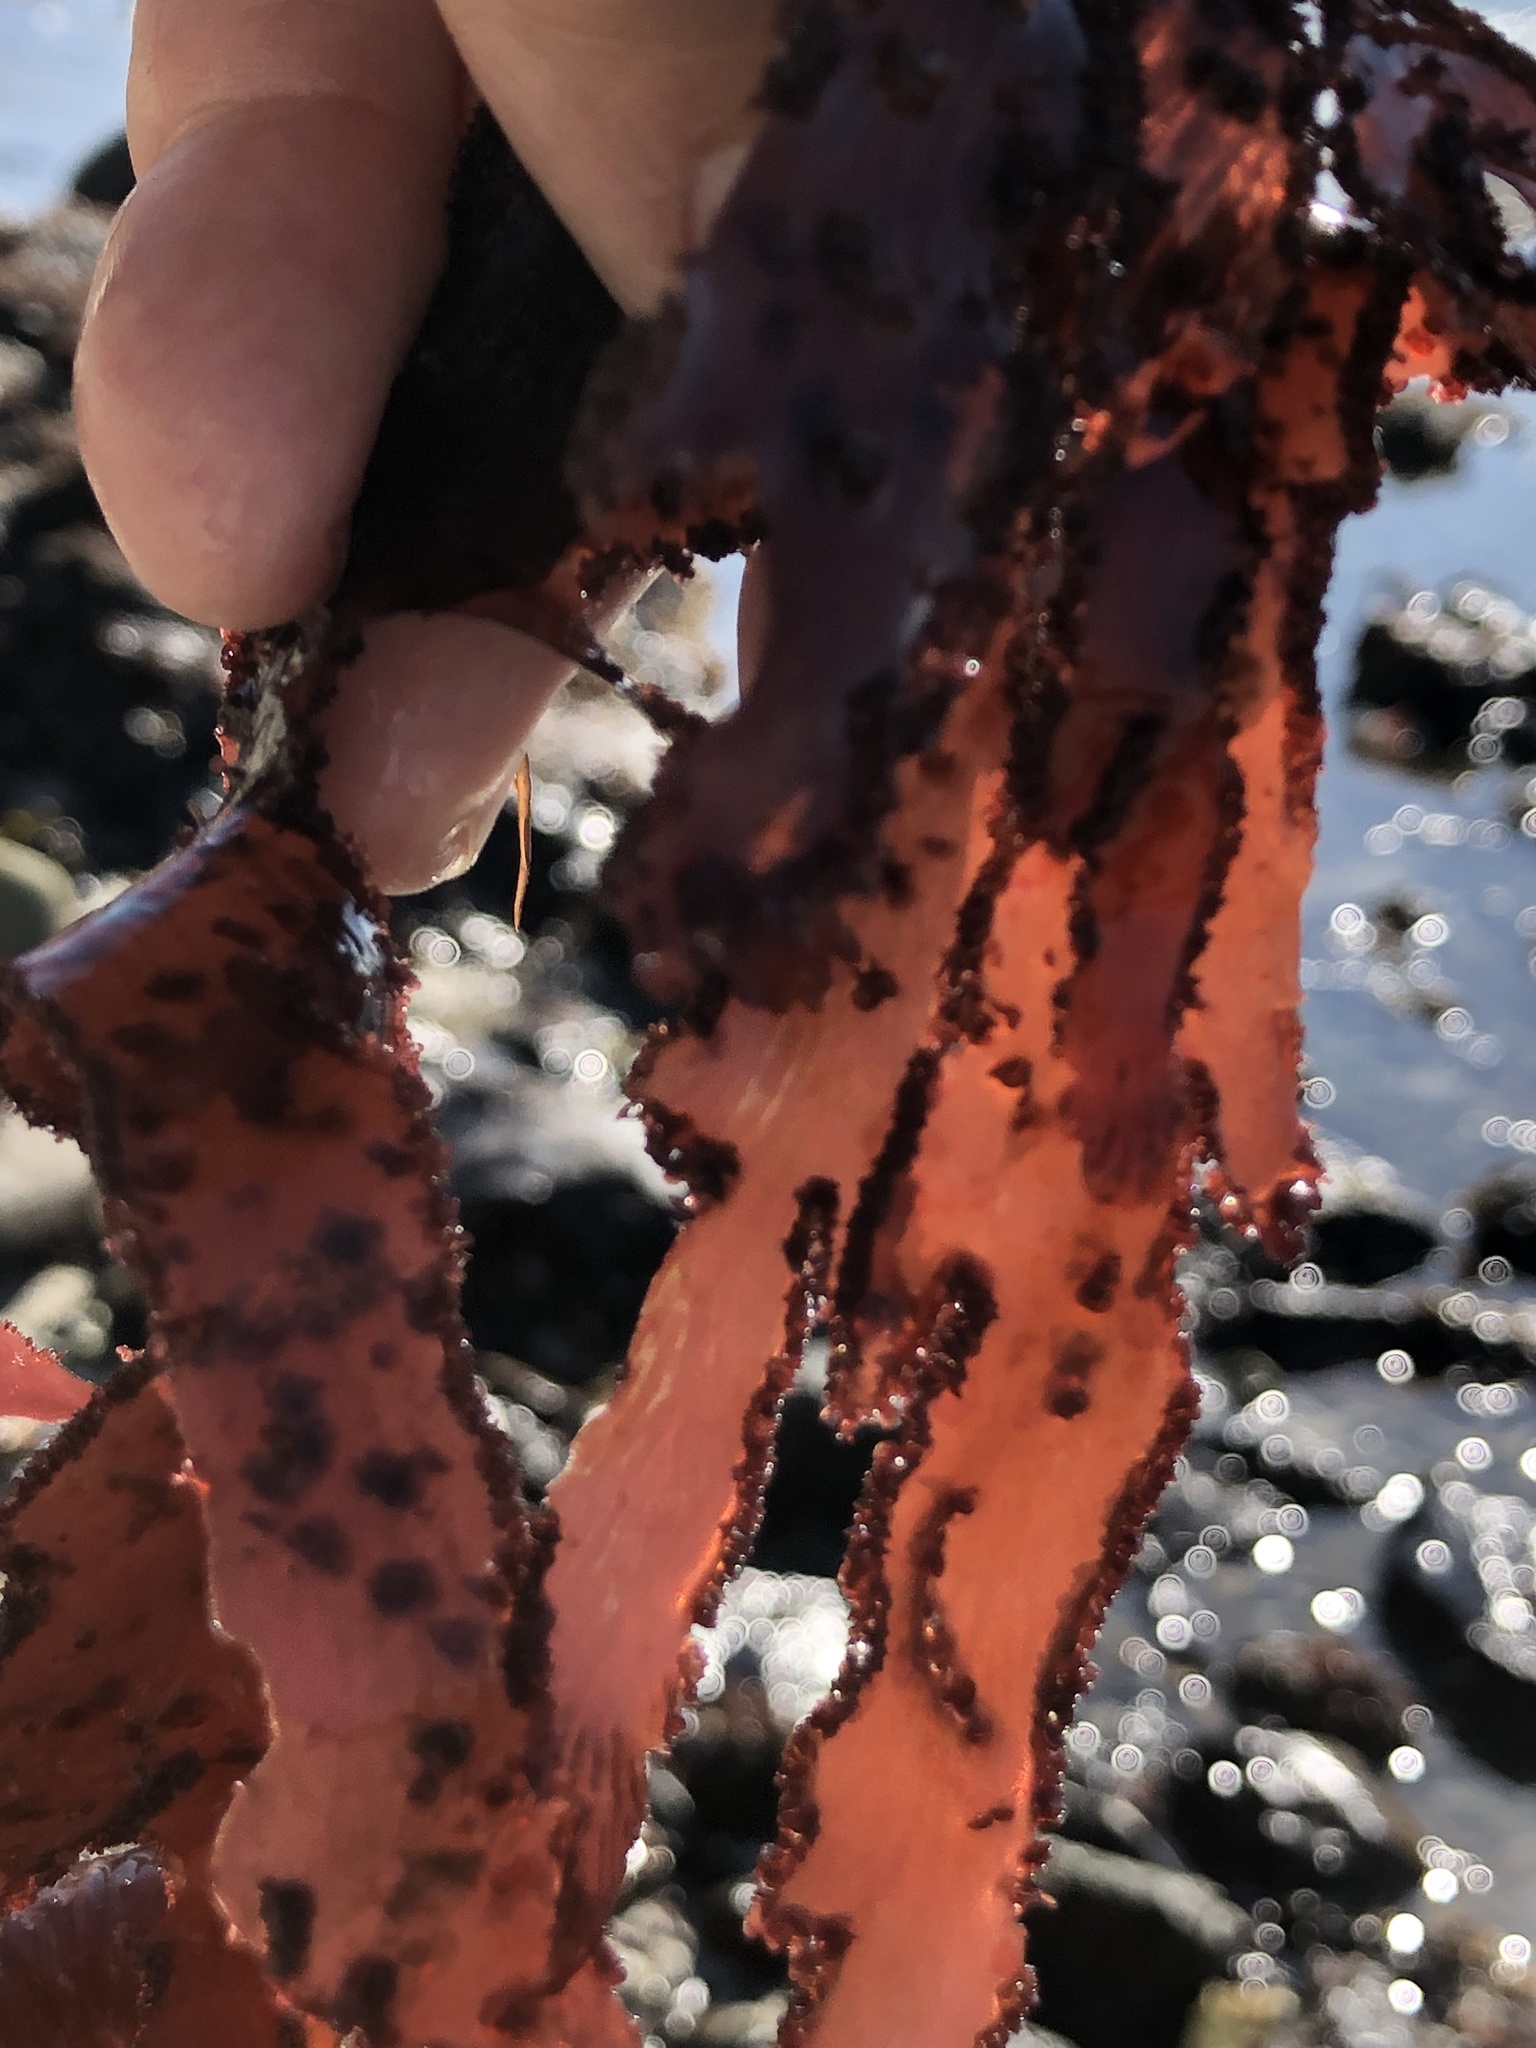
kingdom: Plantae
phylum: Rhodophyta
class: Florideophyceae
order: Ceramiales
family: Delesseriaceae
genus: Cryptopleura
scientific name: Cryptopleura ruprechtiana
